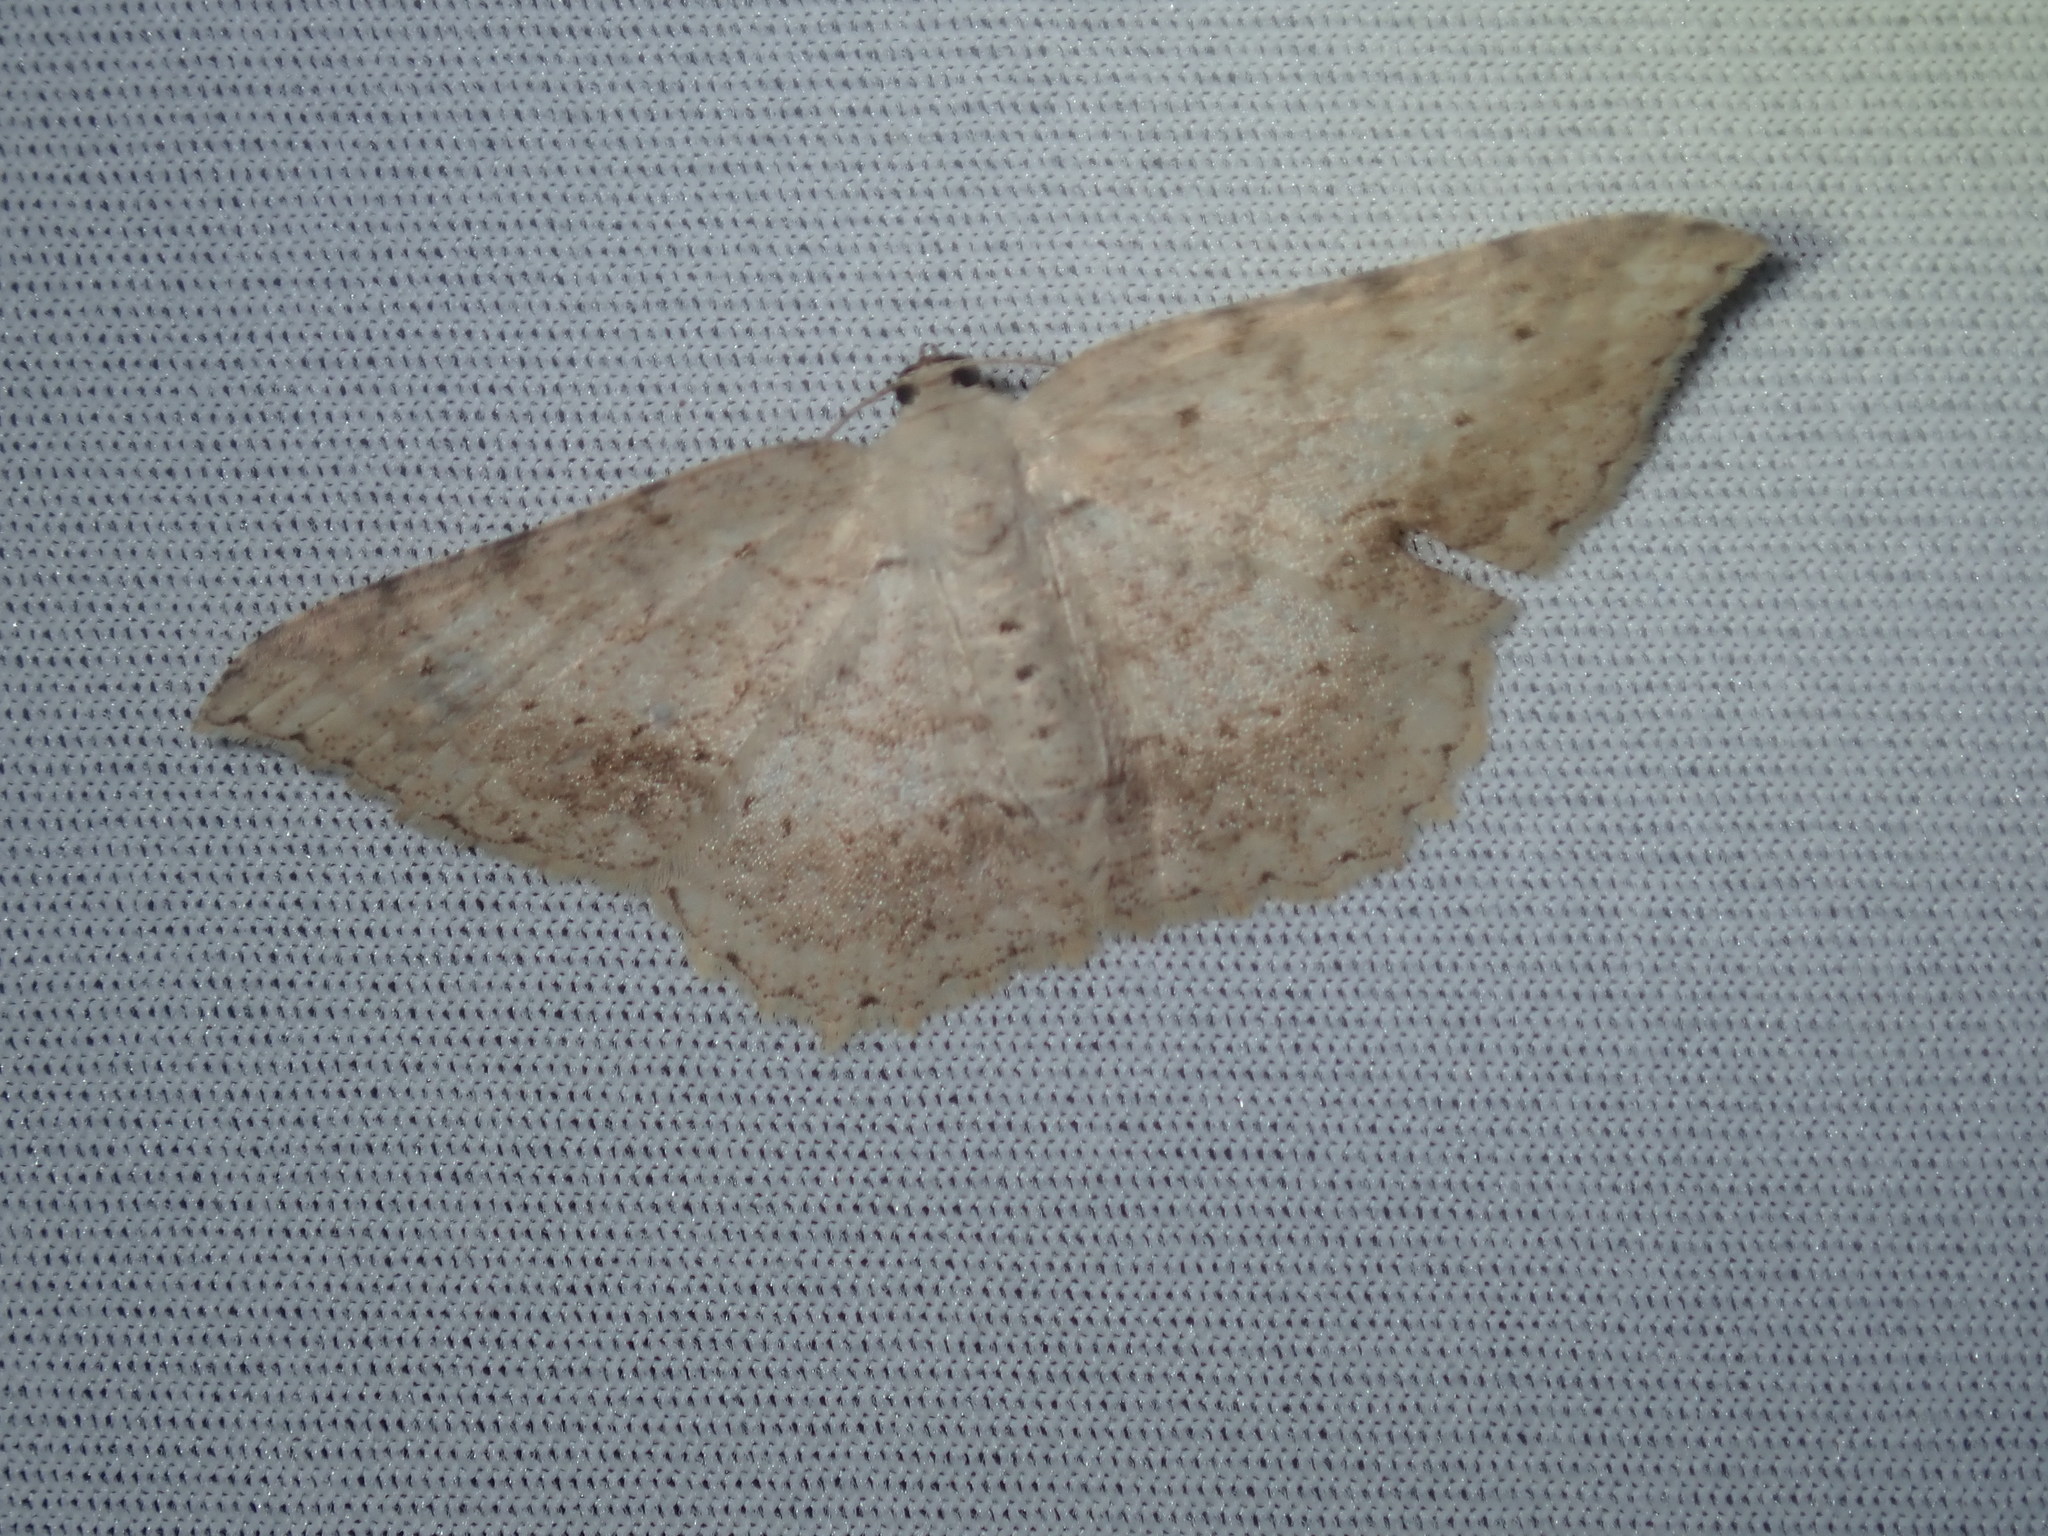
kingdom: Animalia
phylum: Arthropoda
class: Insecta
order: Lepidoptera
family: Geometridae
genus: Luxiaria
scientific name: Luxiaria ochrophara
